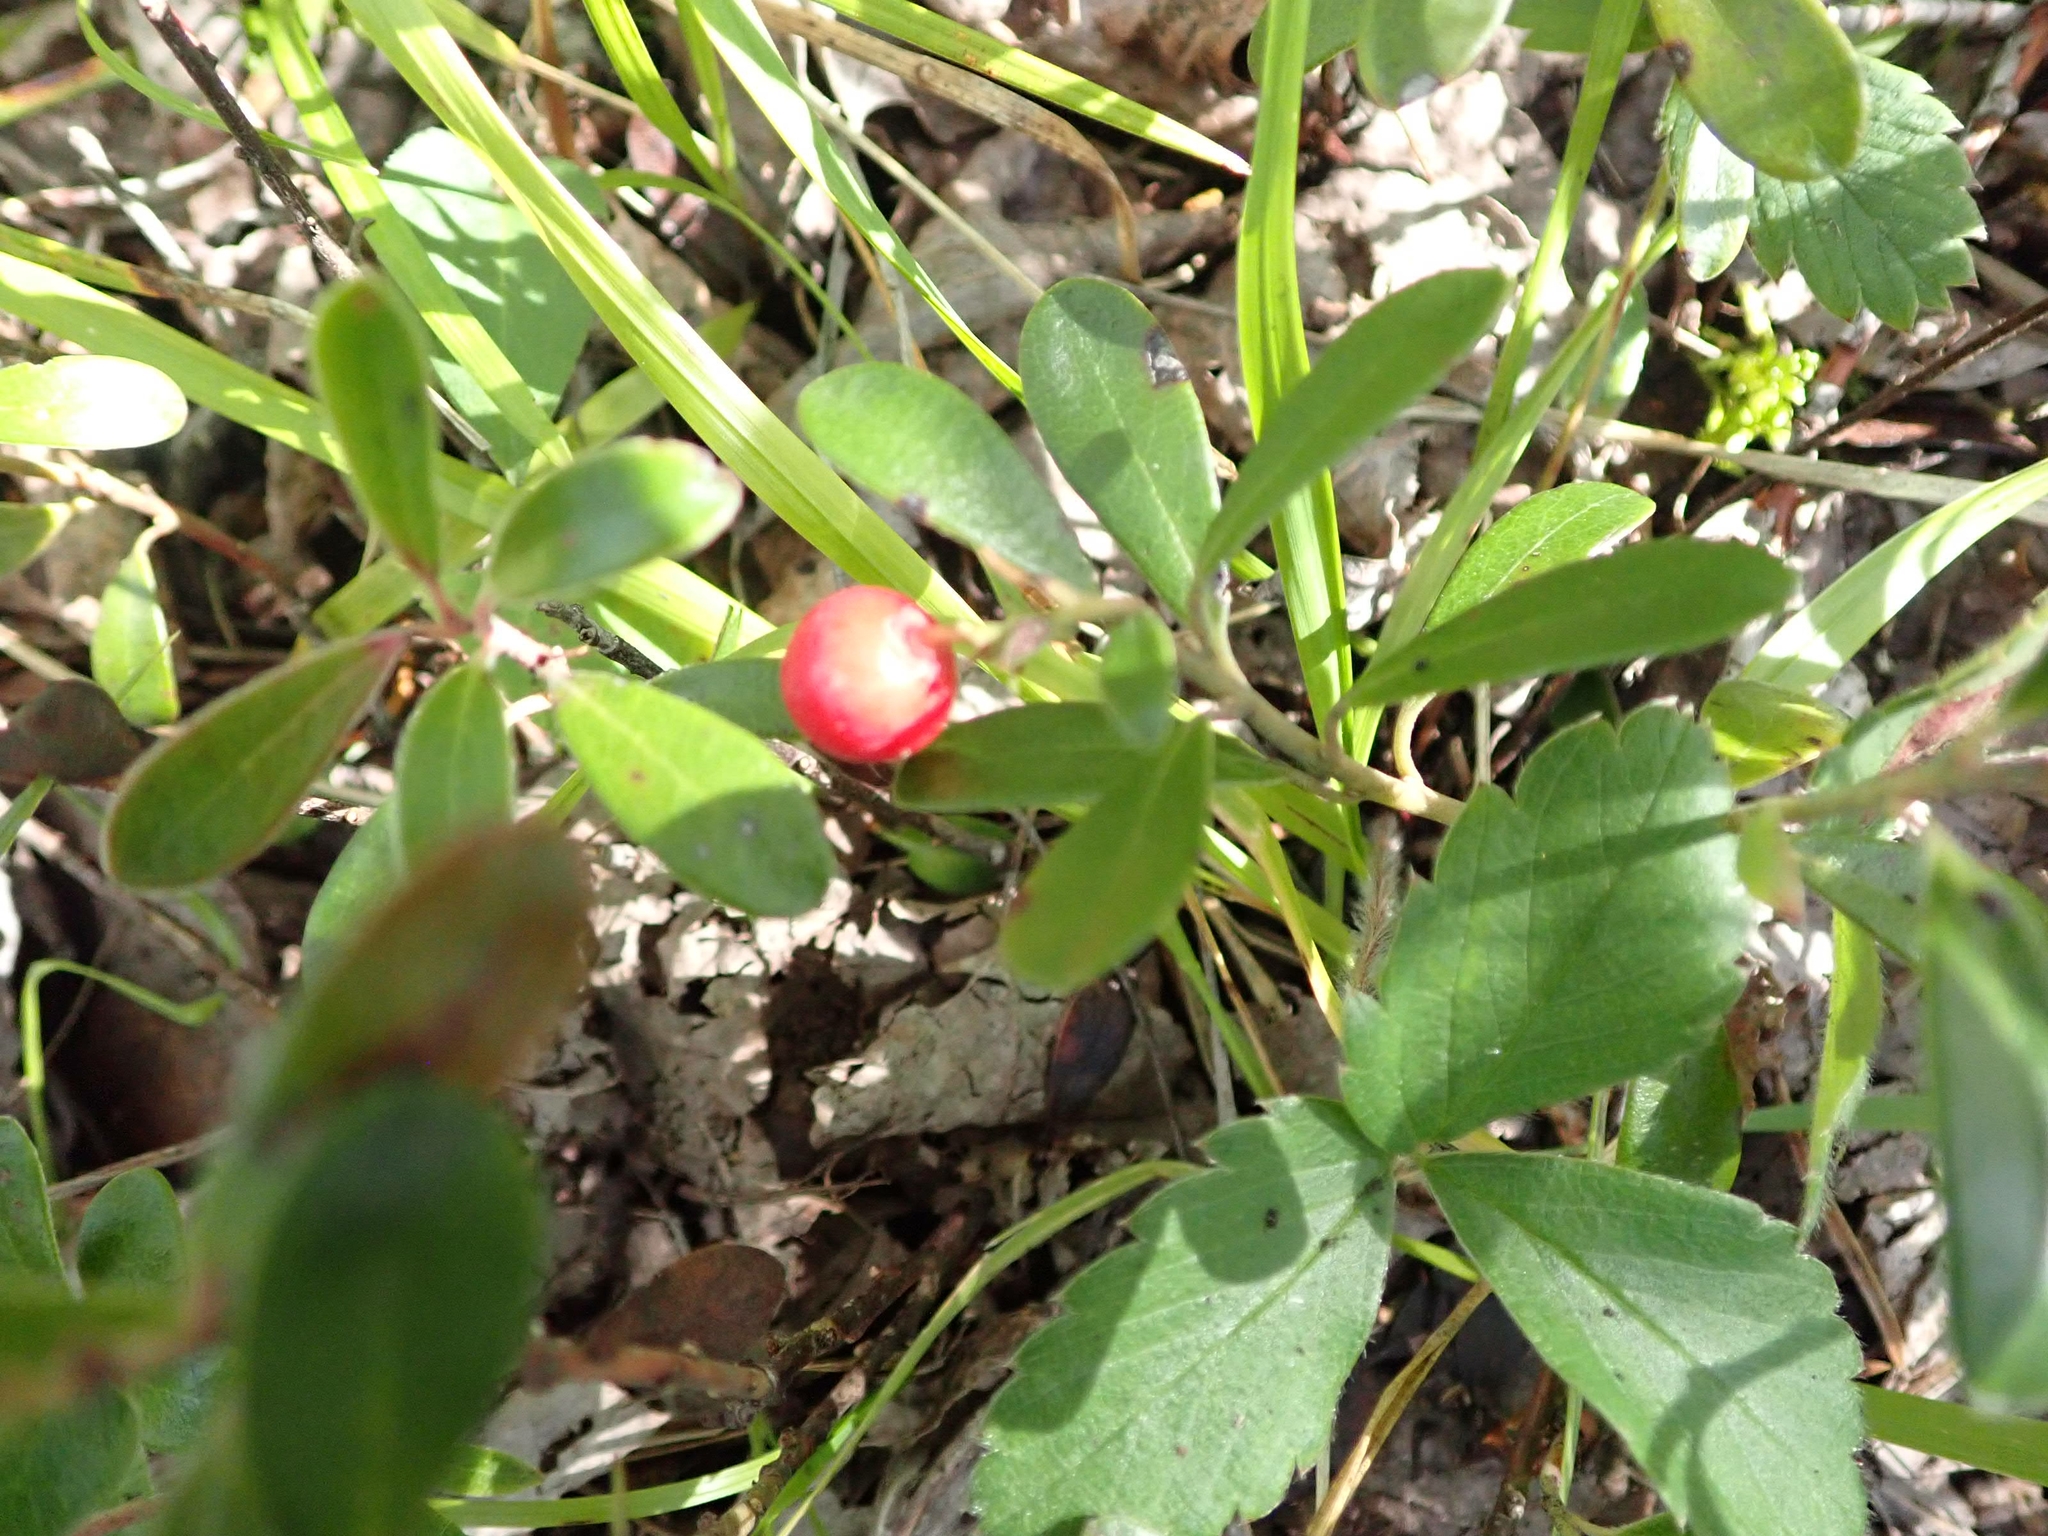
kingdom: Plantae
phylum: Tracheophyta
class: Magnoliopsida
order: Ericales
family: Ericaceae
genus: Arctostaphylos
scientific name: Arctostaphylos uva-ursi
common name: Bearberry
